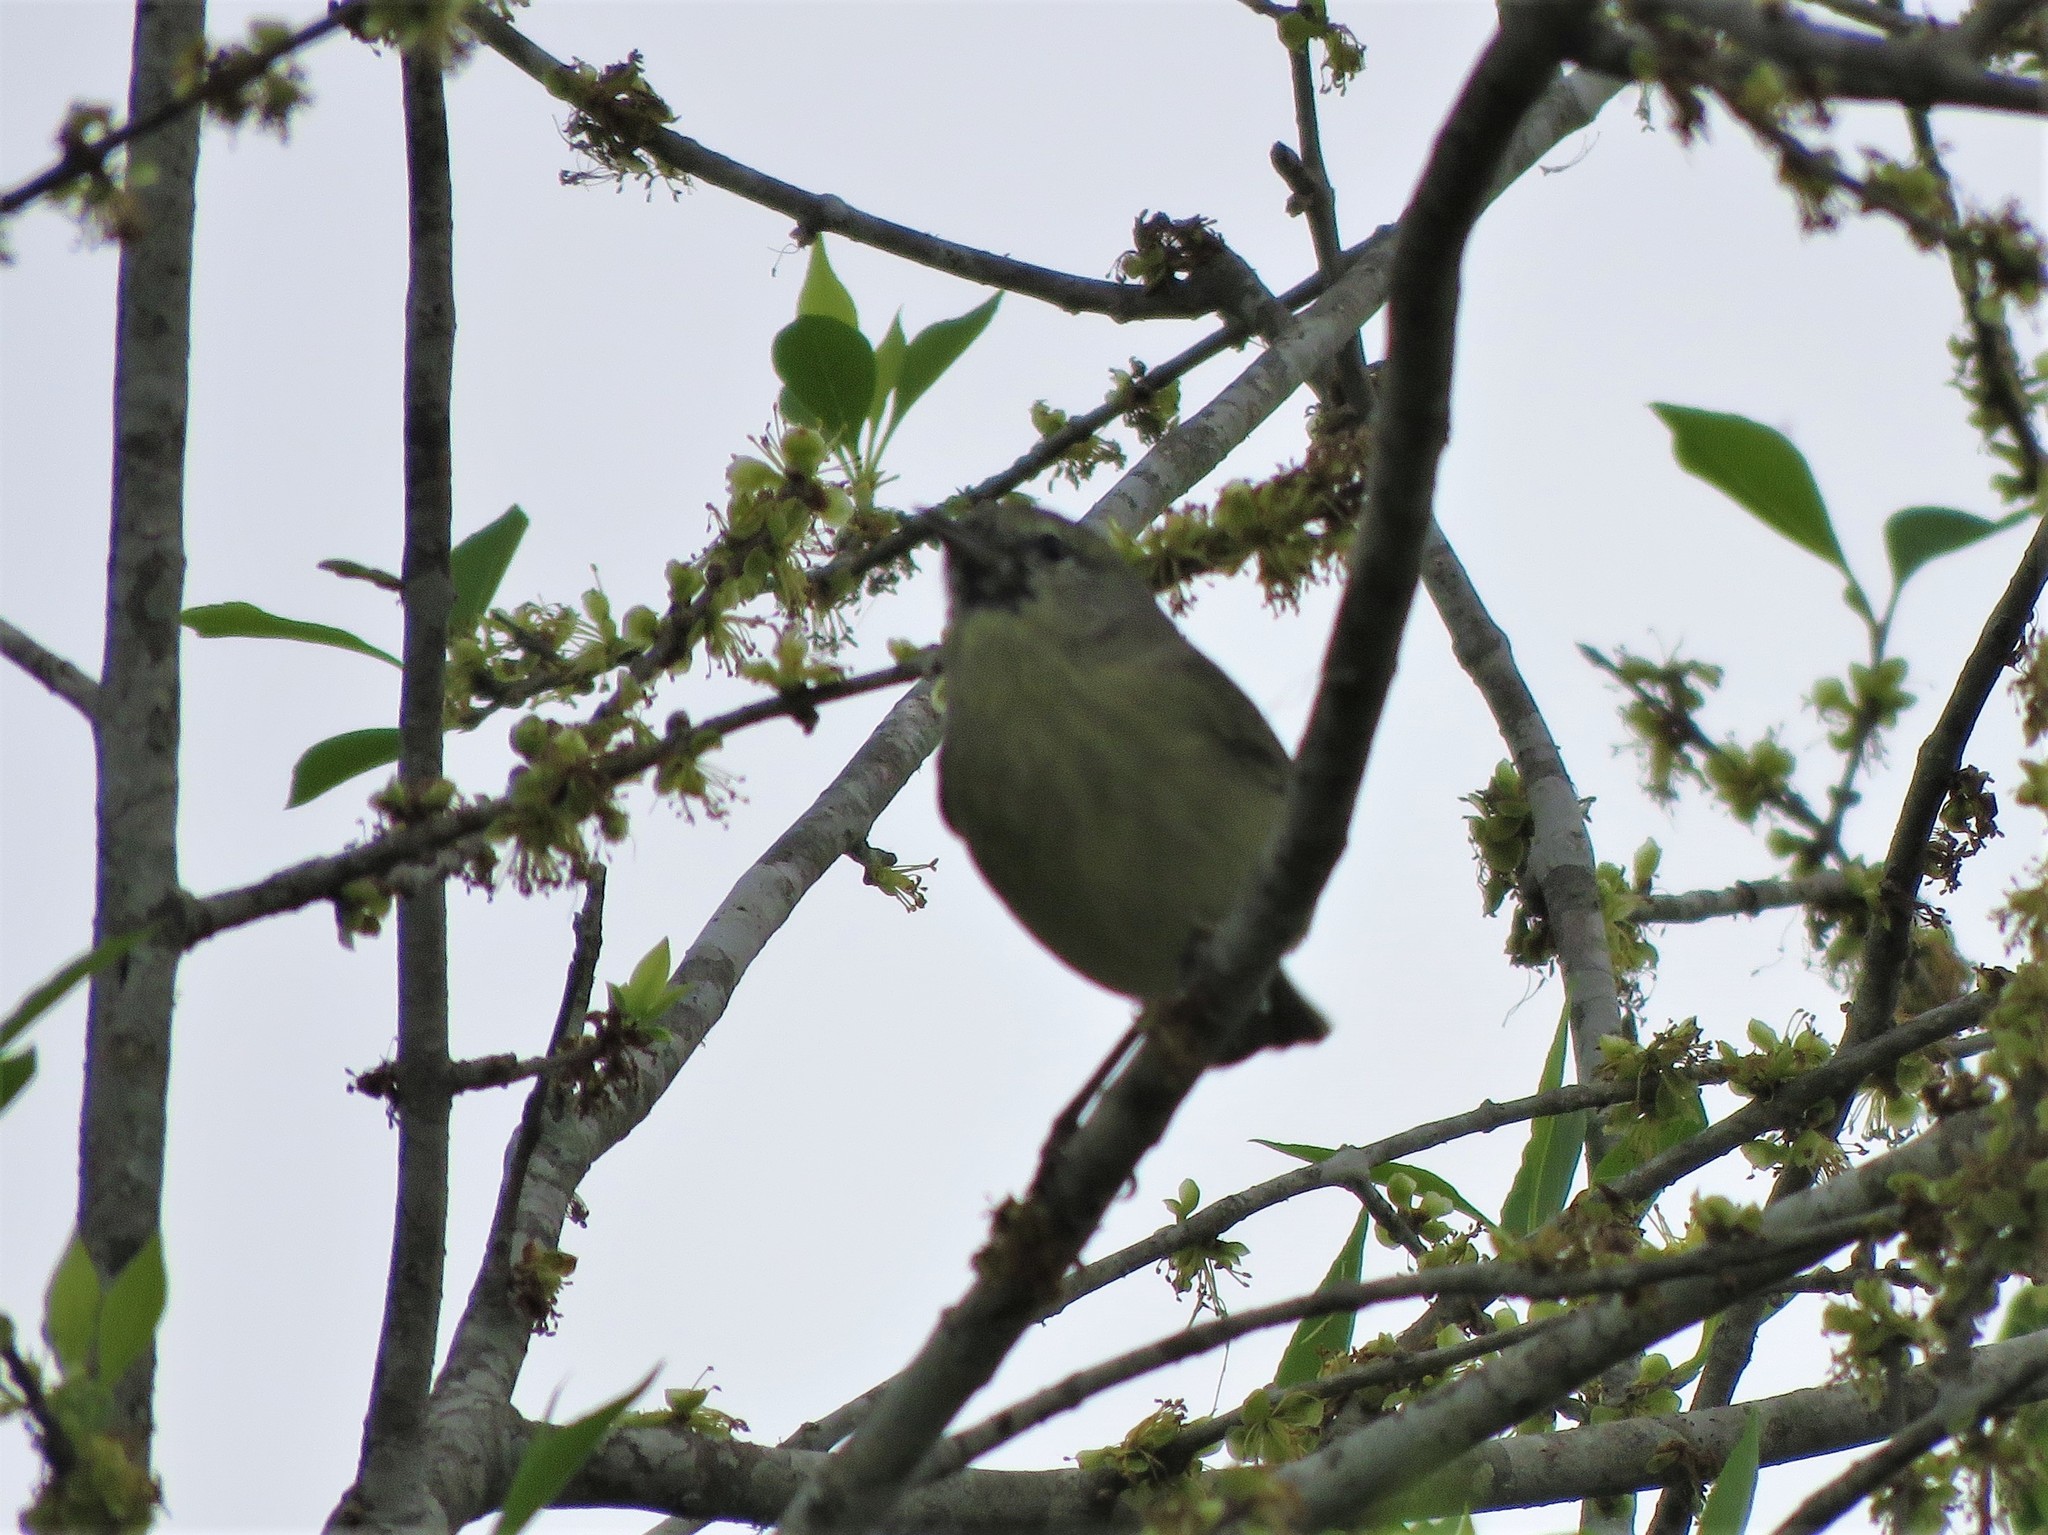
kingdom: Animalia
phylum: Chordata
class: Aves
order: Passeriformes
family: Parulidae
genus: Leiothlypis
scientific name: Leiothlypis celata
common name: Orange-crowned warbler
